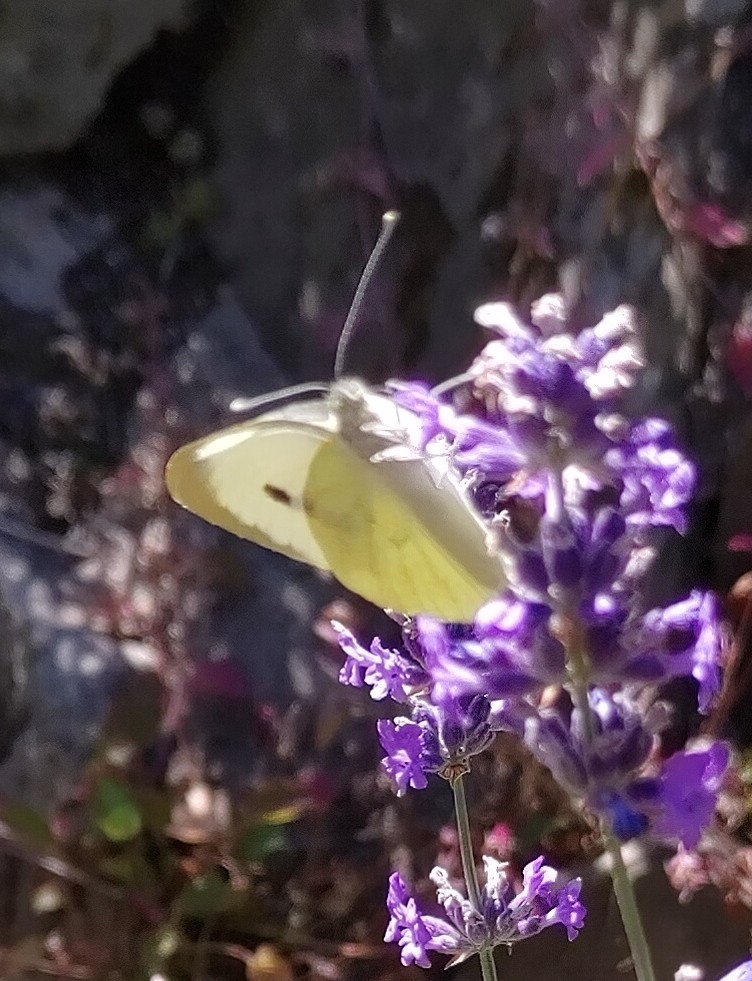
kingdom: Animalia
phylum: Arthropoda
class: Insecta
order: Lepidoptera
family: Pieridae
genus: Pieris
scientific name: Pieris brassicae
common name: Large white
